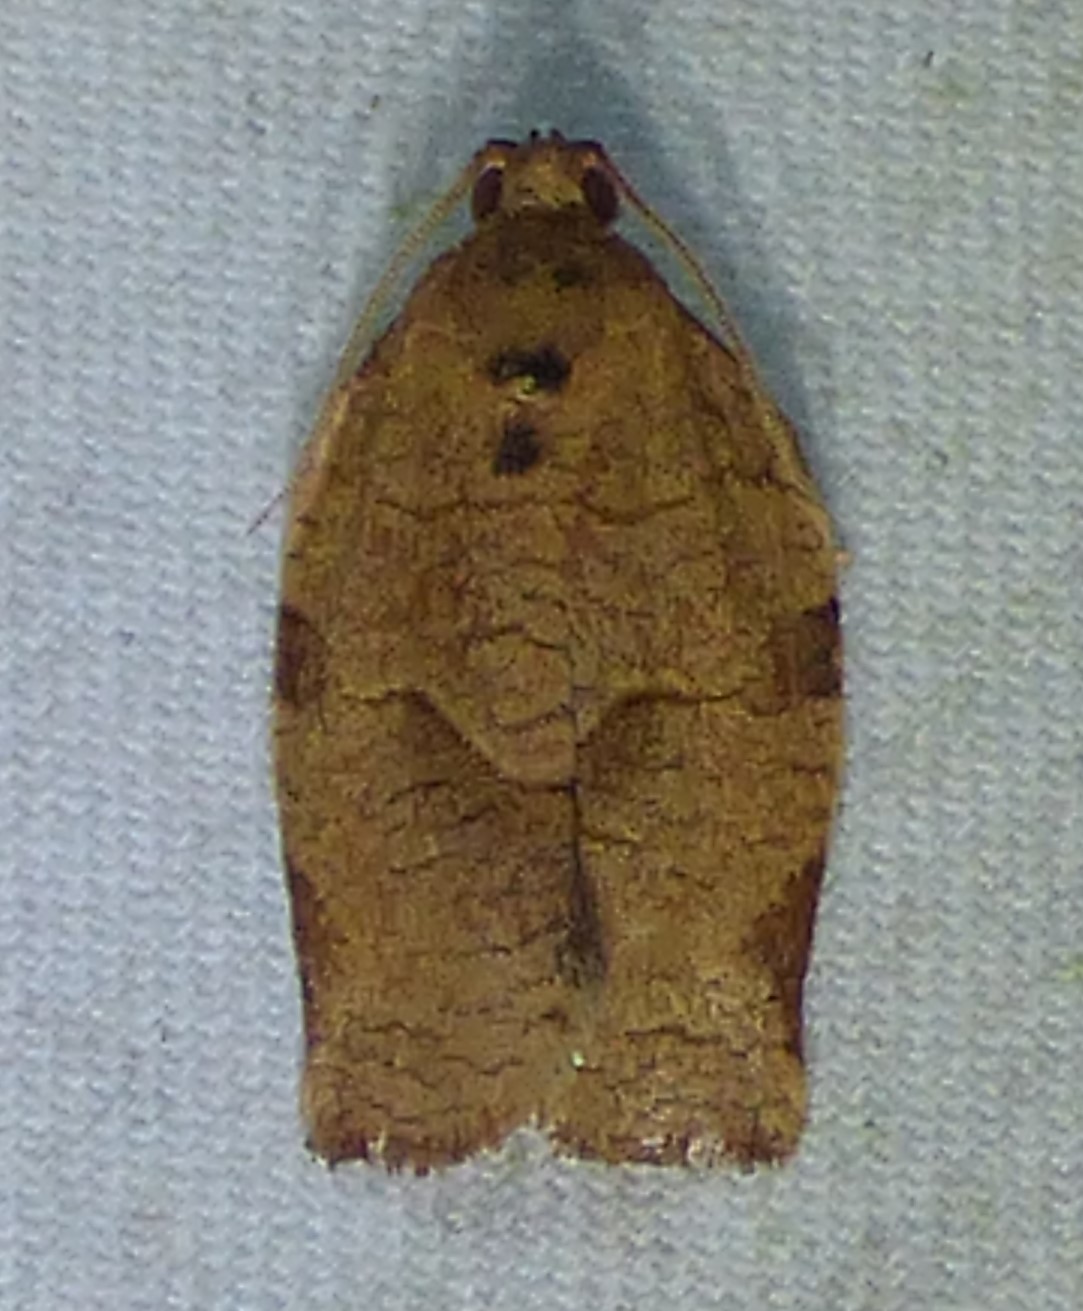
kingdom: Animalia
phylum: Arthropoda
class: Insecta
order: Lepidoptera
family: Tortricidae
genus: Choristoneura
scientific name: Choristoneura rosaceana
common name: Oblique-banded leafroller moth
